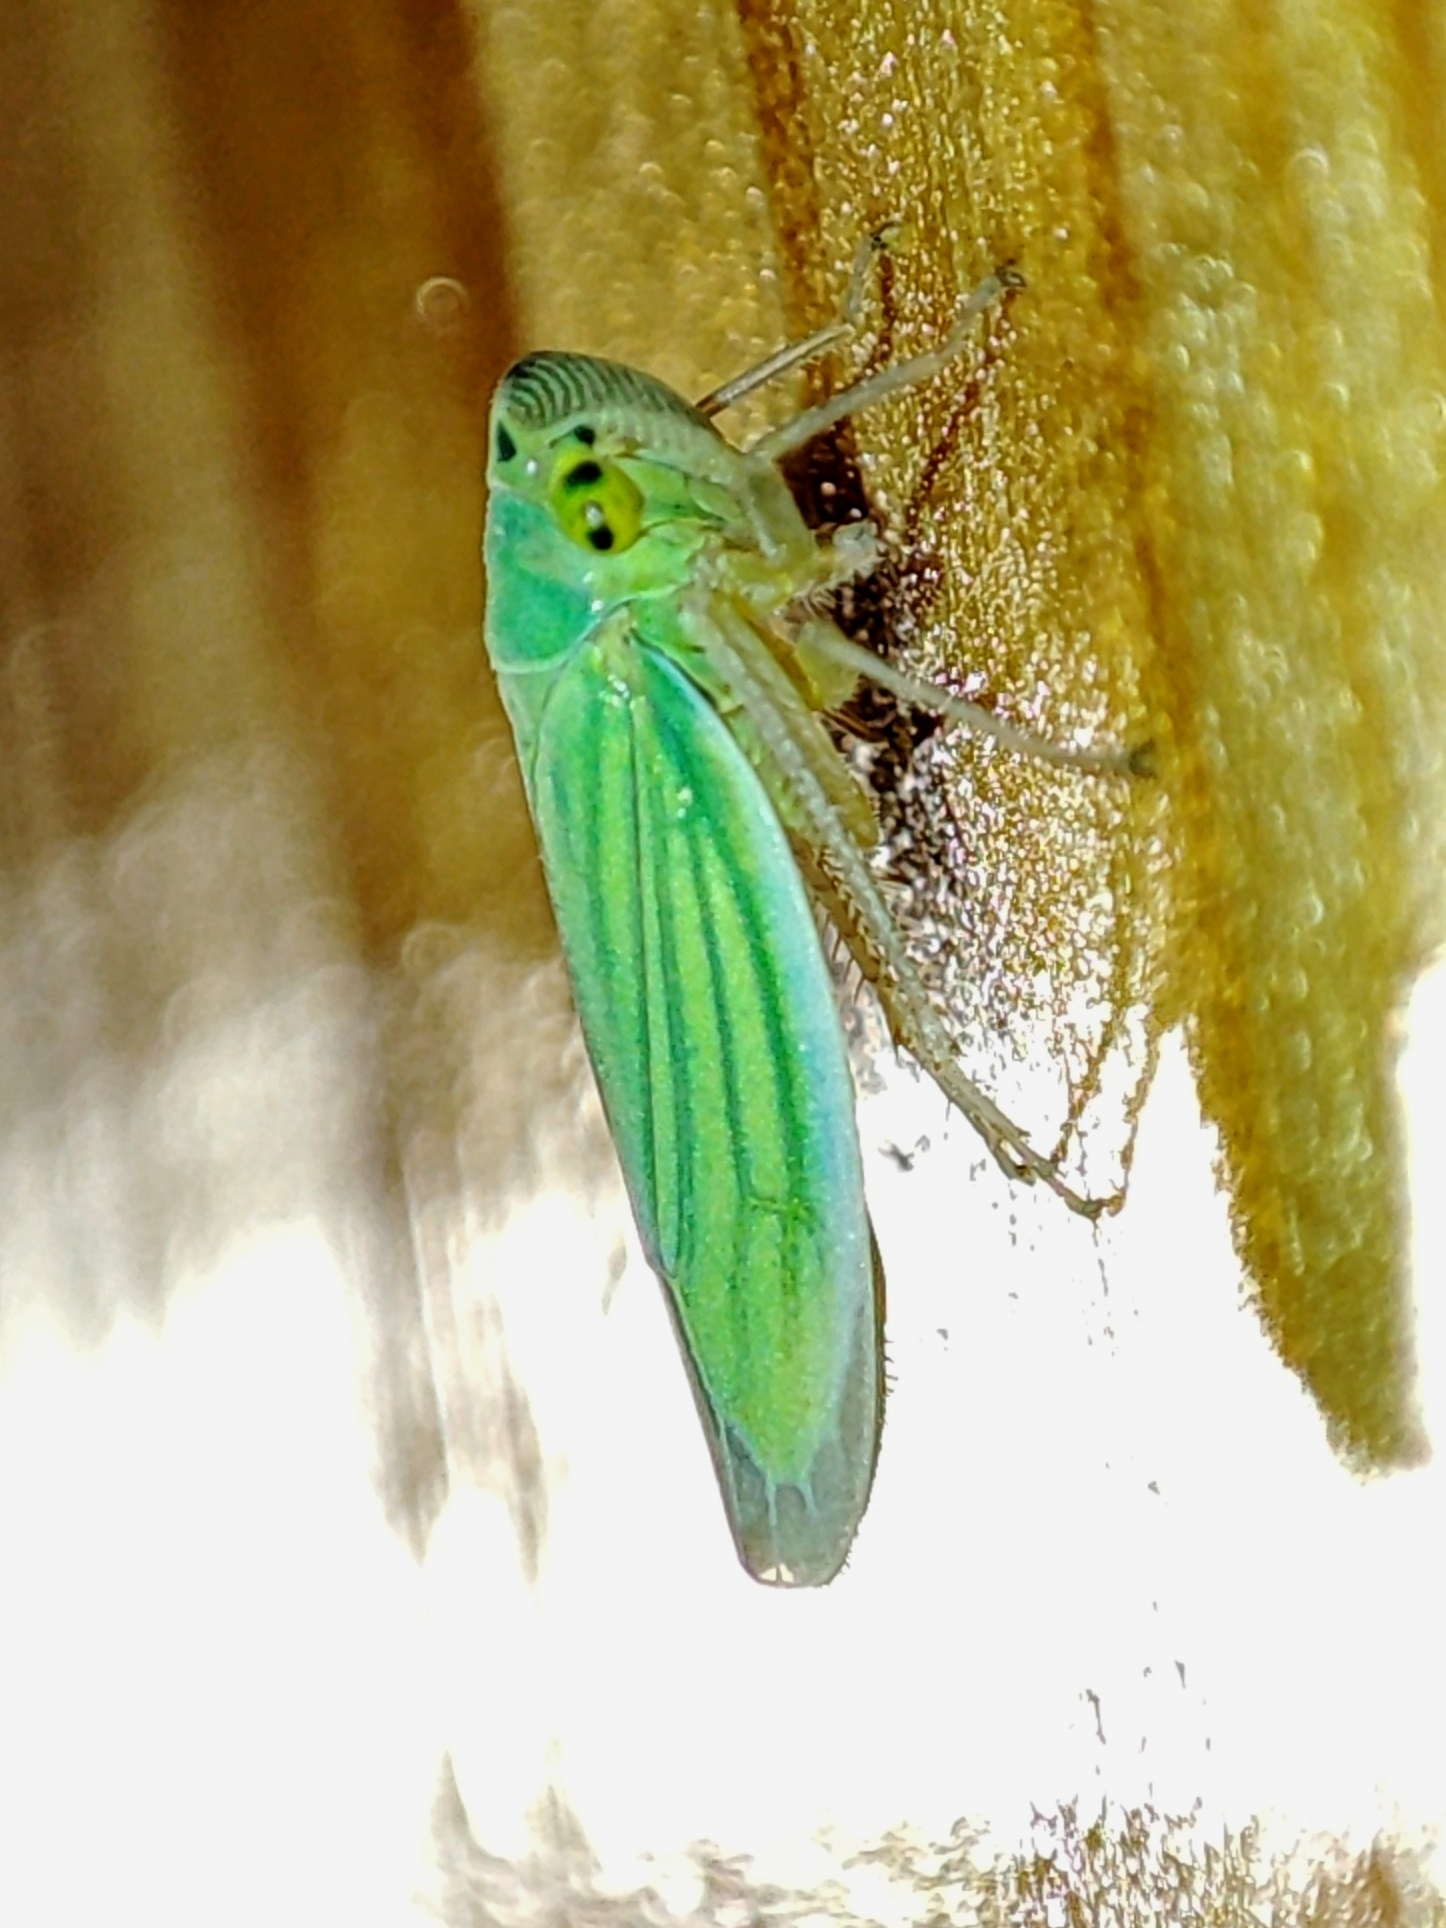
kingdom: Animalia
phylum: Arthropoda
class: Insecta
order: Hemiptera
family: Cicadellidae
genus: Cicadella
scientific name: Cicadella viridis
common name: Leafhopper
